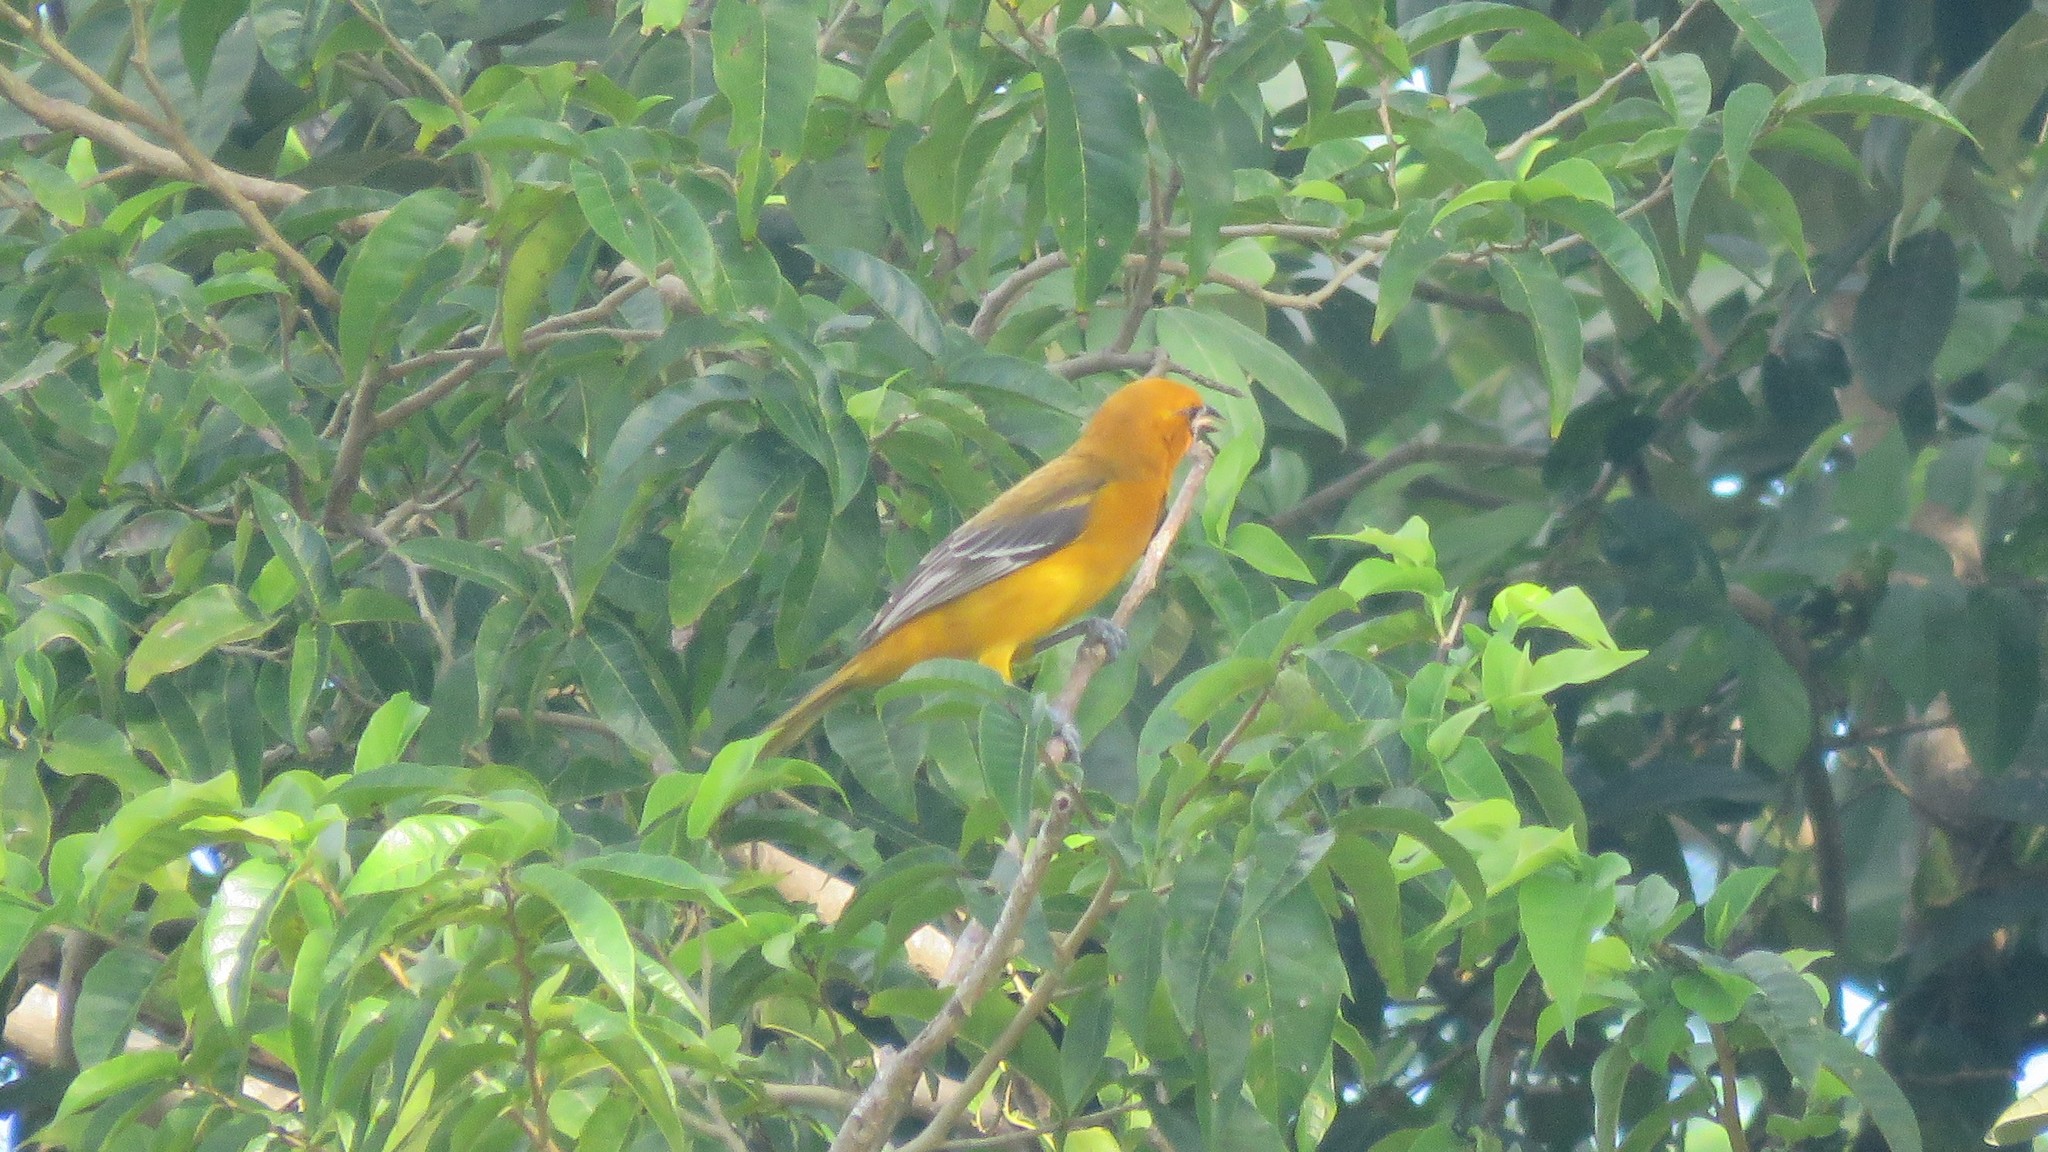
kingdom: Animalia
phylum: Chordata
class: Aves
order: Passeriformes
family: Icteridae
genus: Icterus
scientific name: Icterus gularis
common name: Altamira oriole
